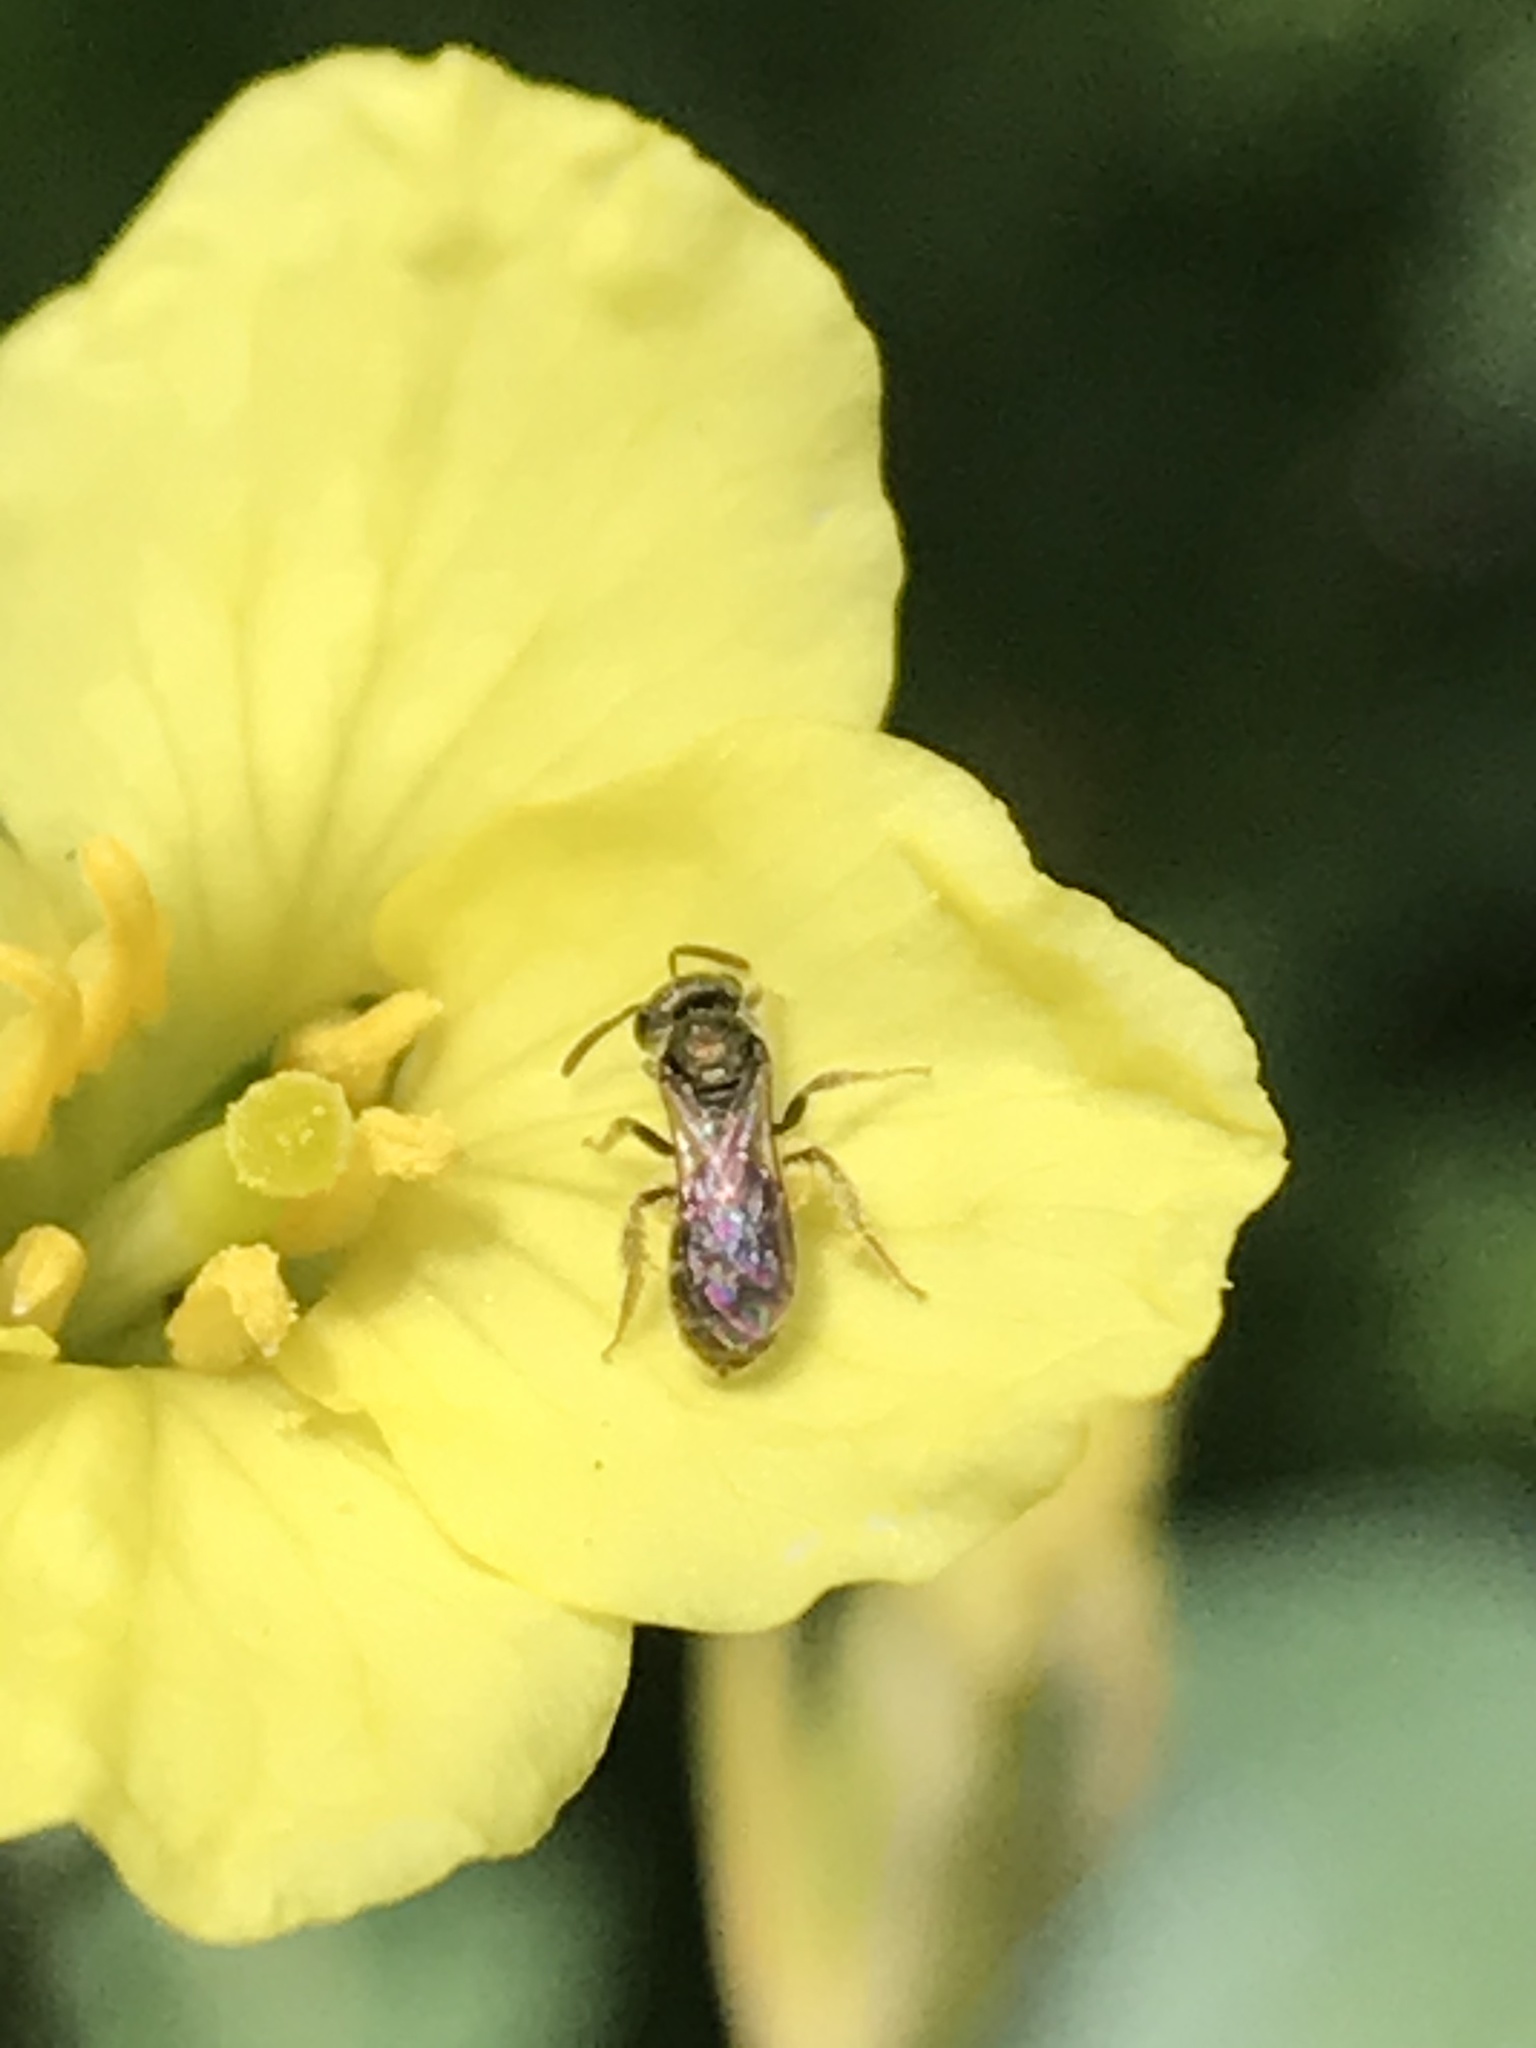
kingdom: Animalia
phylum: Arthropoda
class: Insecta
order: Hymenoptera
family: Halictidae
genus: Dialictus
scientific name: Dialictus
